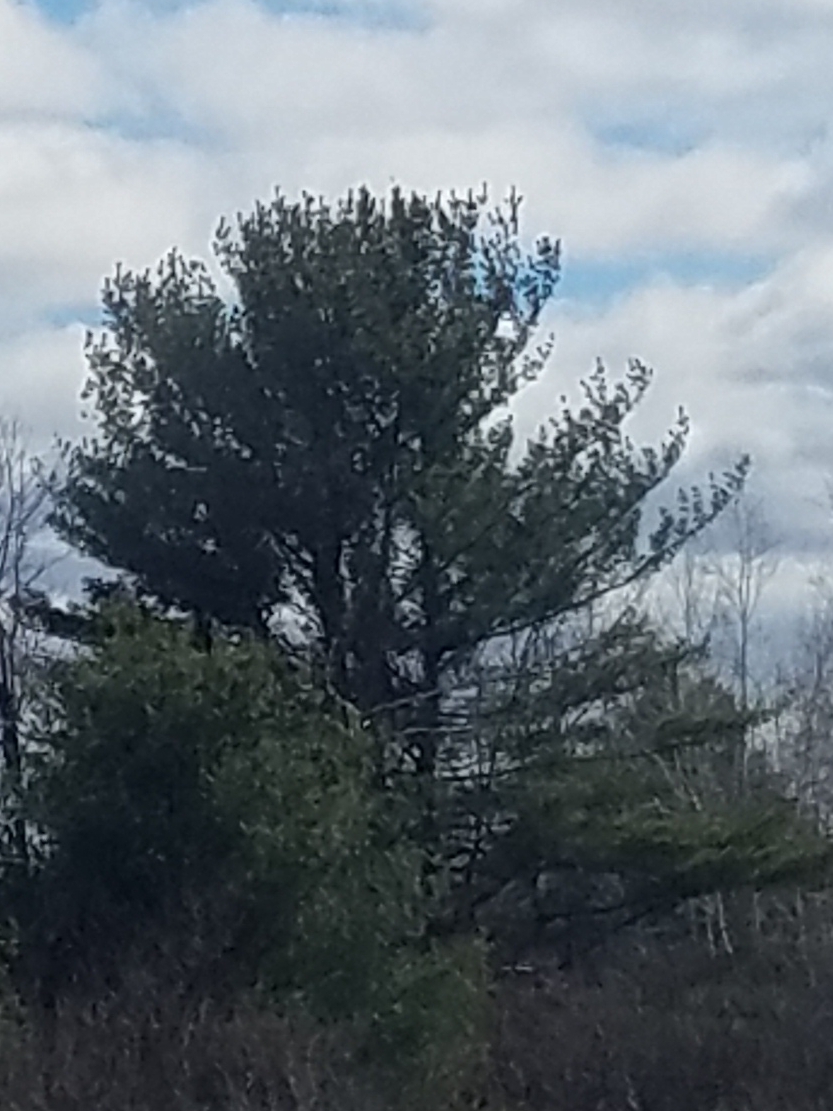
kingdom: Plantae
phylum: Tracheophyta
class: Pinopsida
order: Pinales
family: Pinaceae
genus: Pinus
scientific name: Pinus strobus
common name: Weymouth pine
